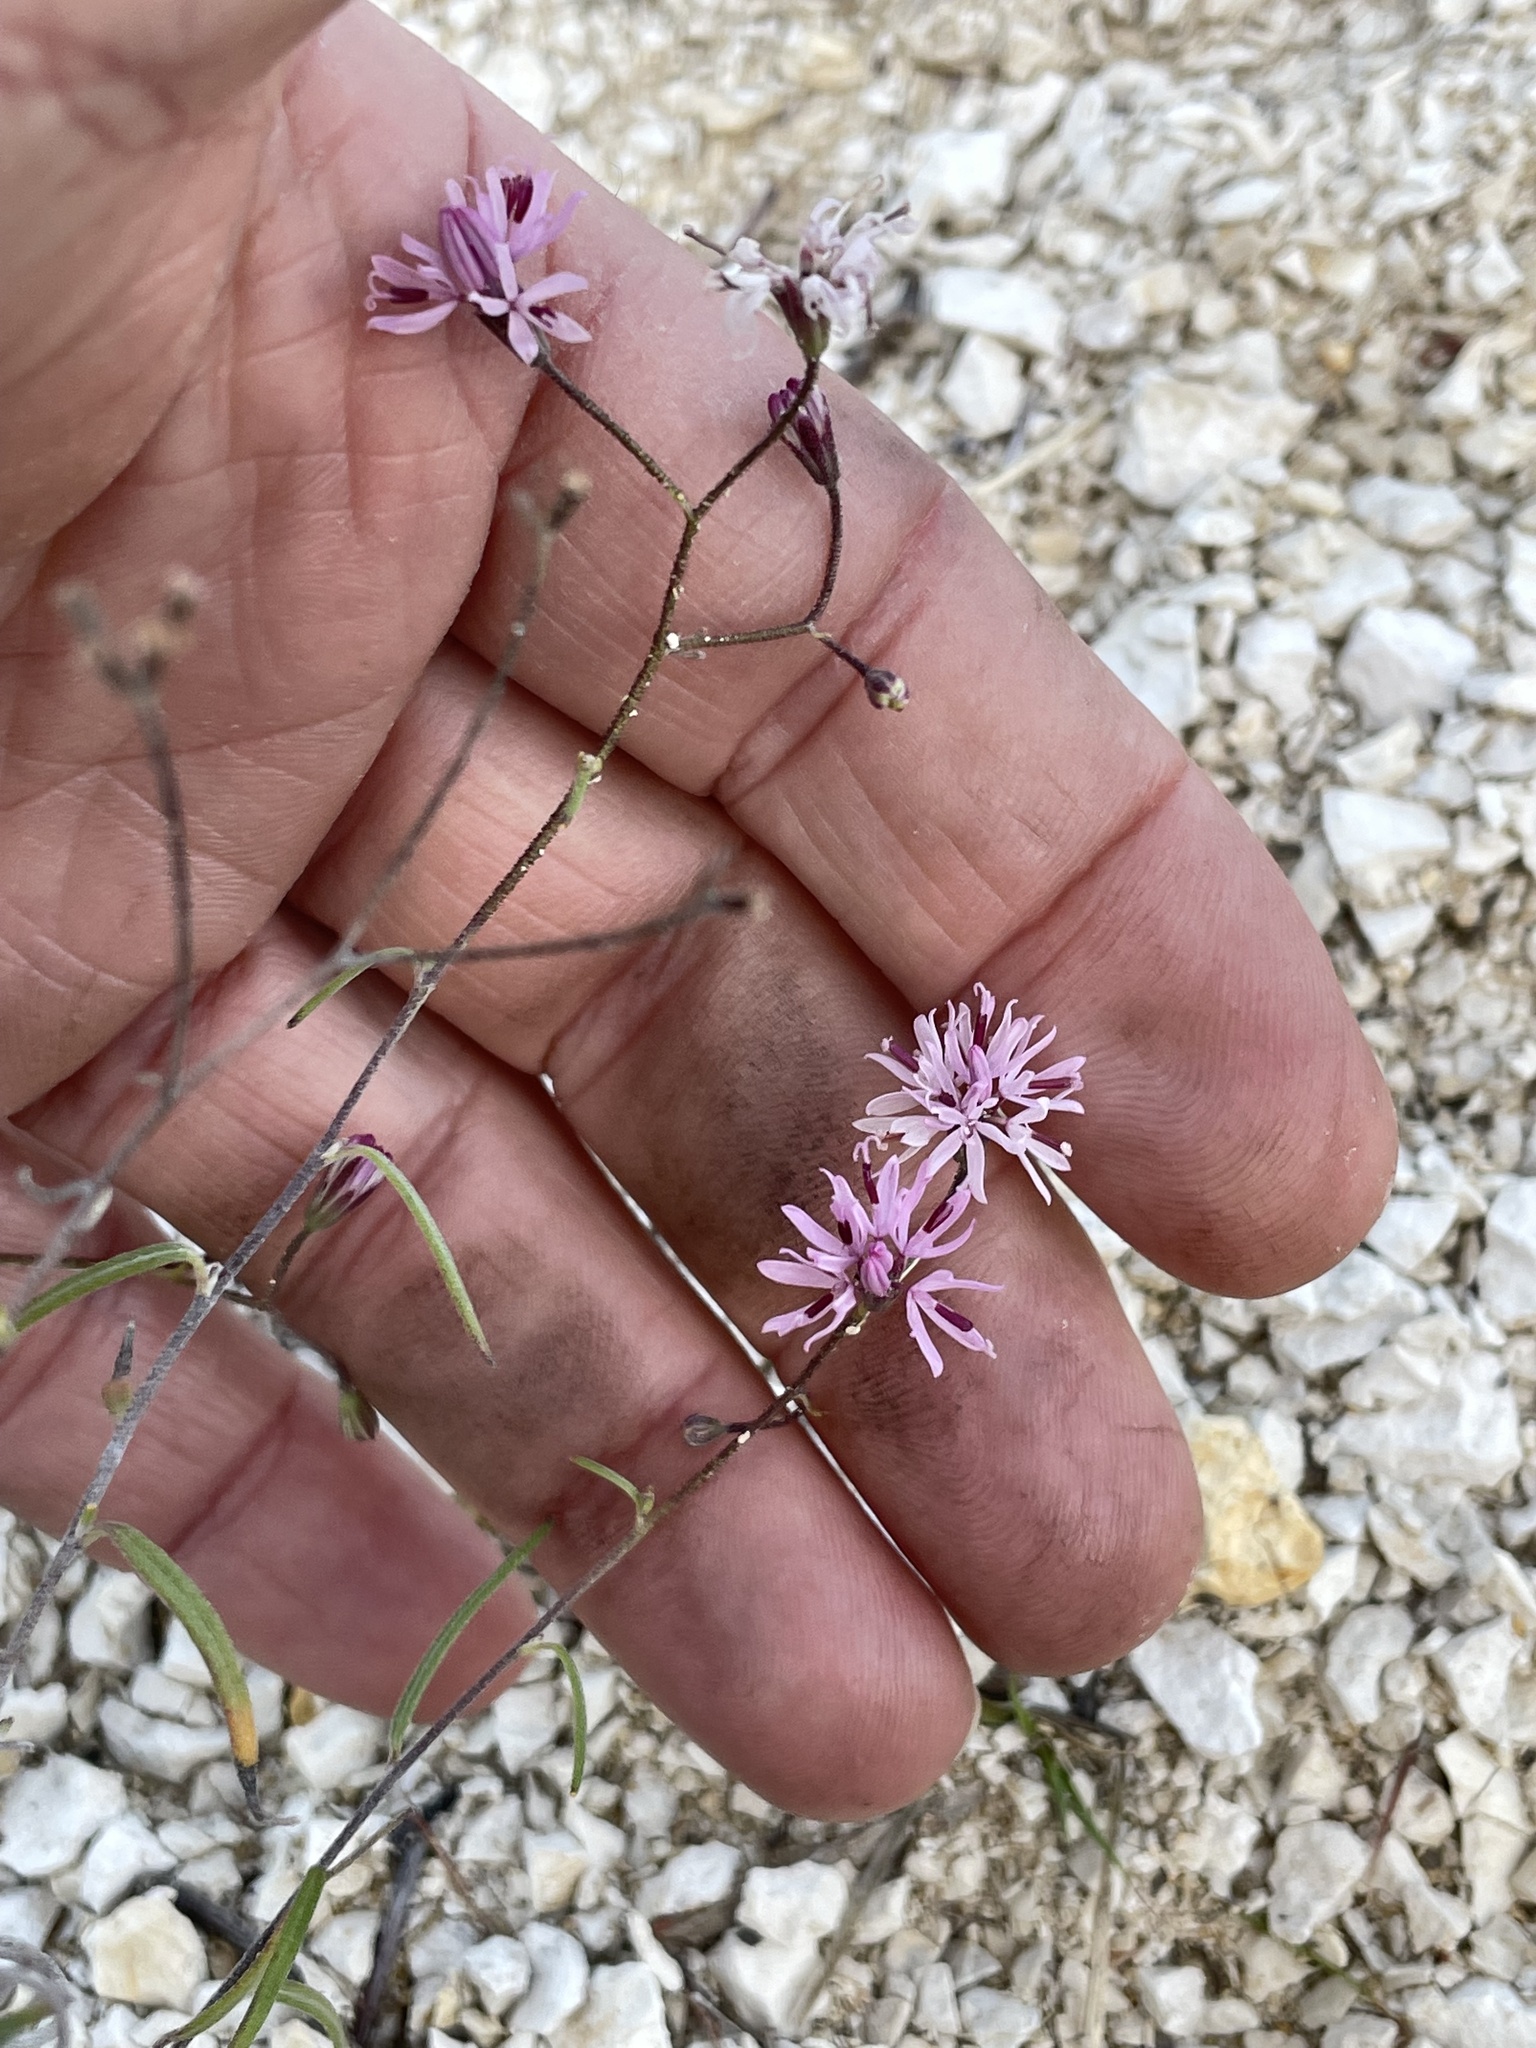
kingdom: Plantae
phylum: Tracheophyta
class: Magnoliopsida
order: Asterales
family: Asteraceae
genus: Palafoxia
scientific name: Palafoxia callosa
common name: Small palafox
